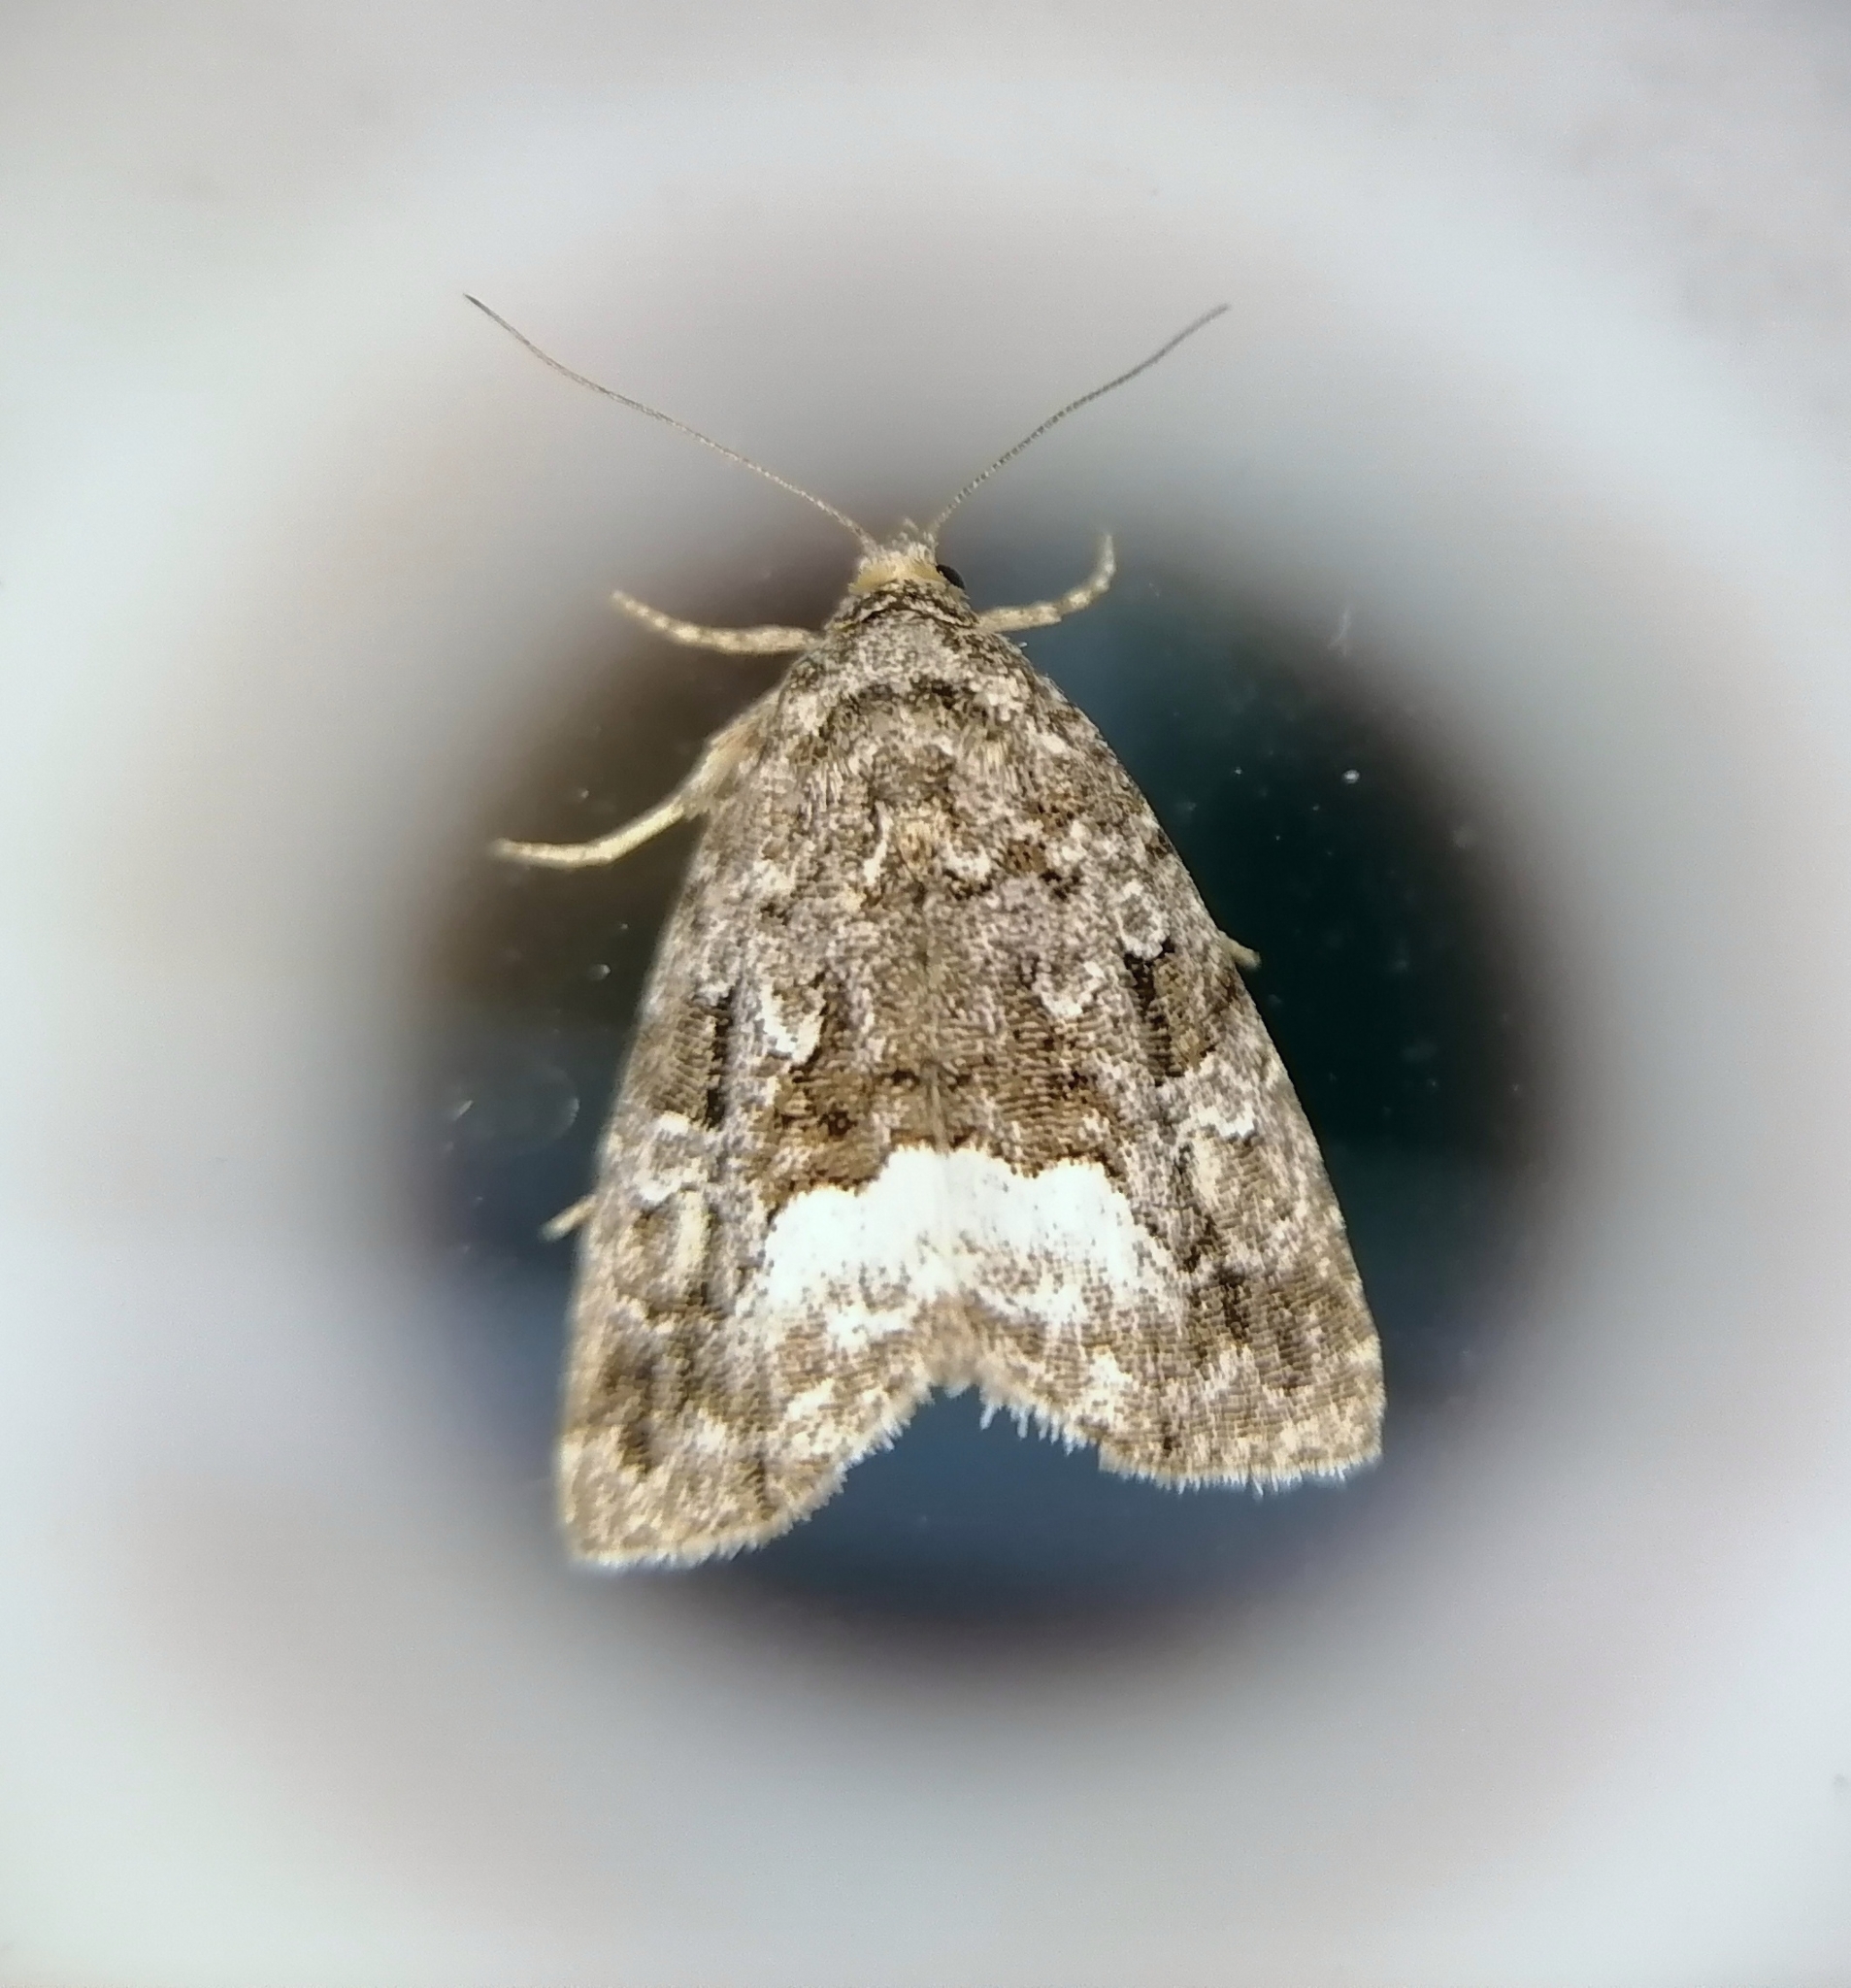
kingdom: Animalia
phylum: Arthropoda
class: Insecta
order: Lepidoptera
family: Noctuidae
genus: Deltote
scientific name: Deltote pygarga
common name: Marbled white spot
